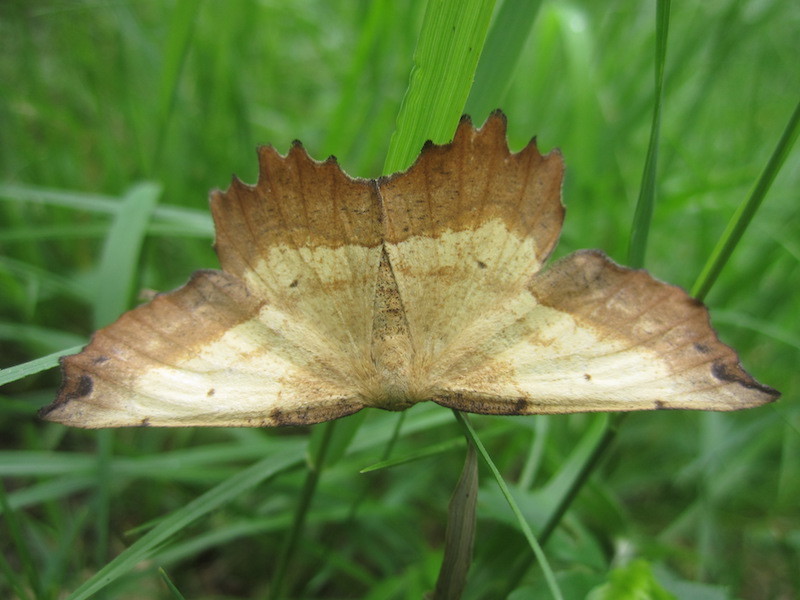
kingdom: Animalia
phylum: Arthropoda
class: Insecta
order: Lepidoptera
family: Geometridae
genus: Euchlaena
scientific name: Euchlaena muzaria
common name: Muzaria euchlaena
